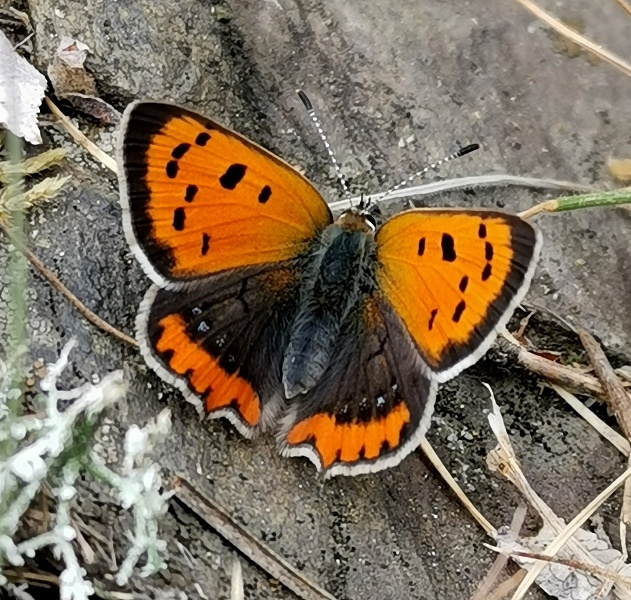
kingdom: Animalia
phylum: Arthropoda
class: Insecta
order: Lepidoptera
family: Lycaenidae
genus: Lycaena
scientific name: Lycaena phlaeas
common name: Small copper
